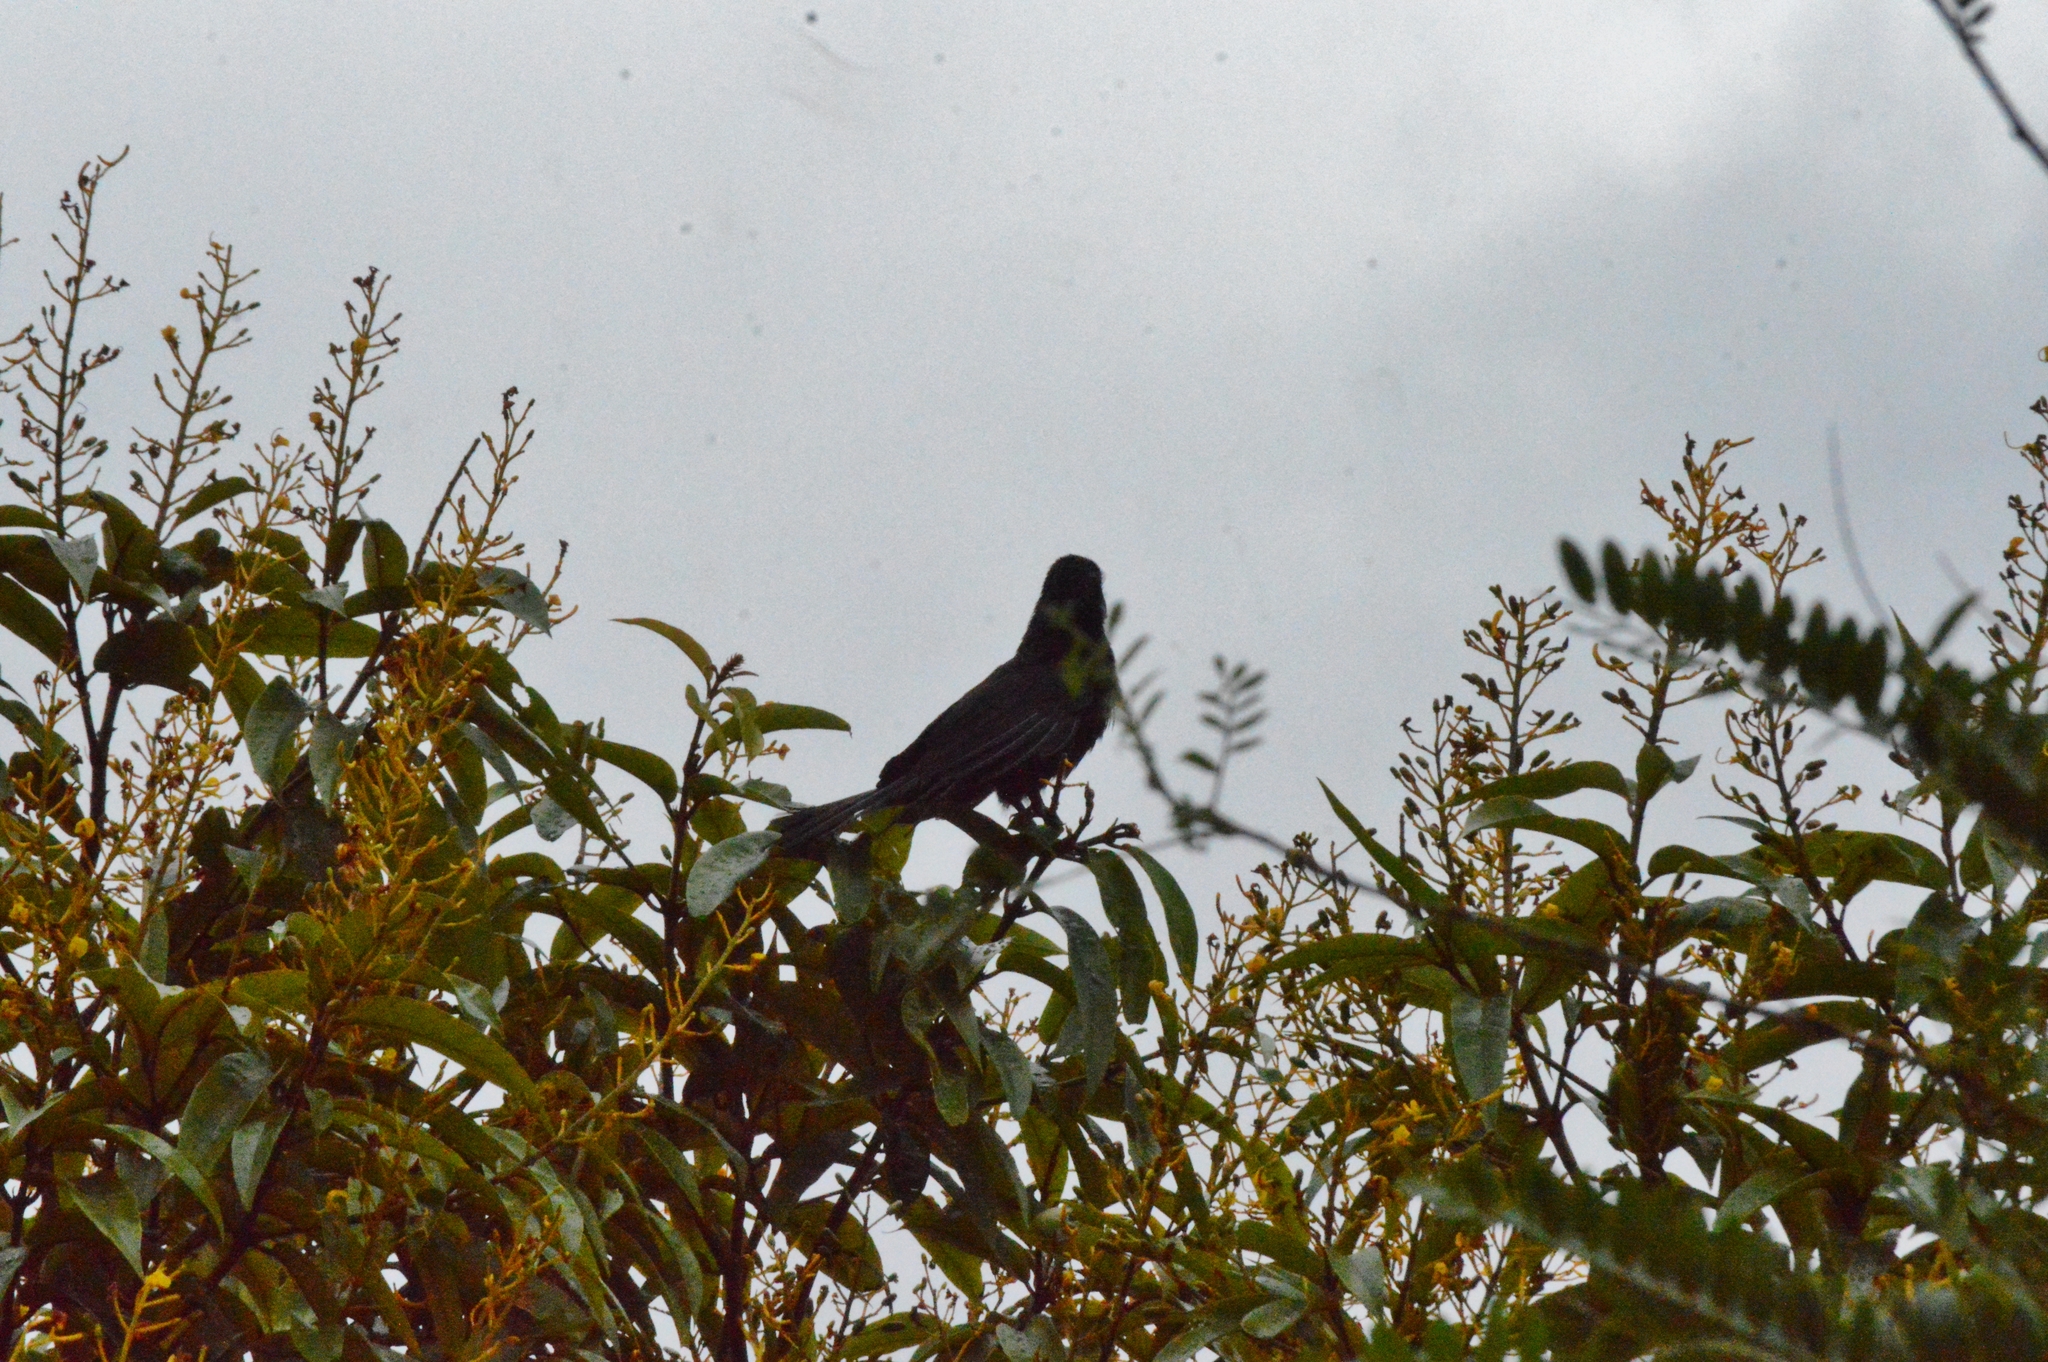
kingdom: Animalia
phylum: Chordata
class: Aves
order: Cuculiformes
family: Cuculidae
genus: Crotophaga
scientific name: Crotophaga ani
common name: Smooth-billed ani
